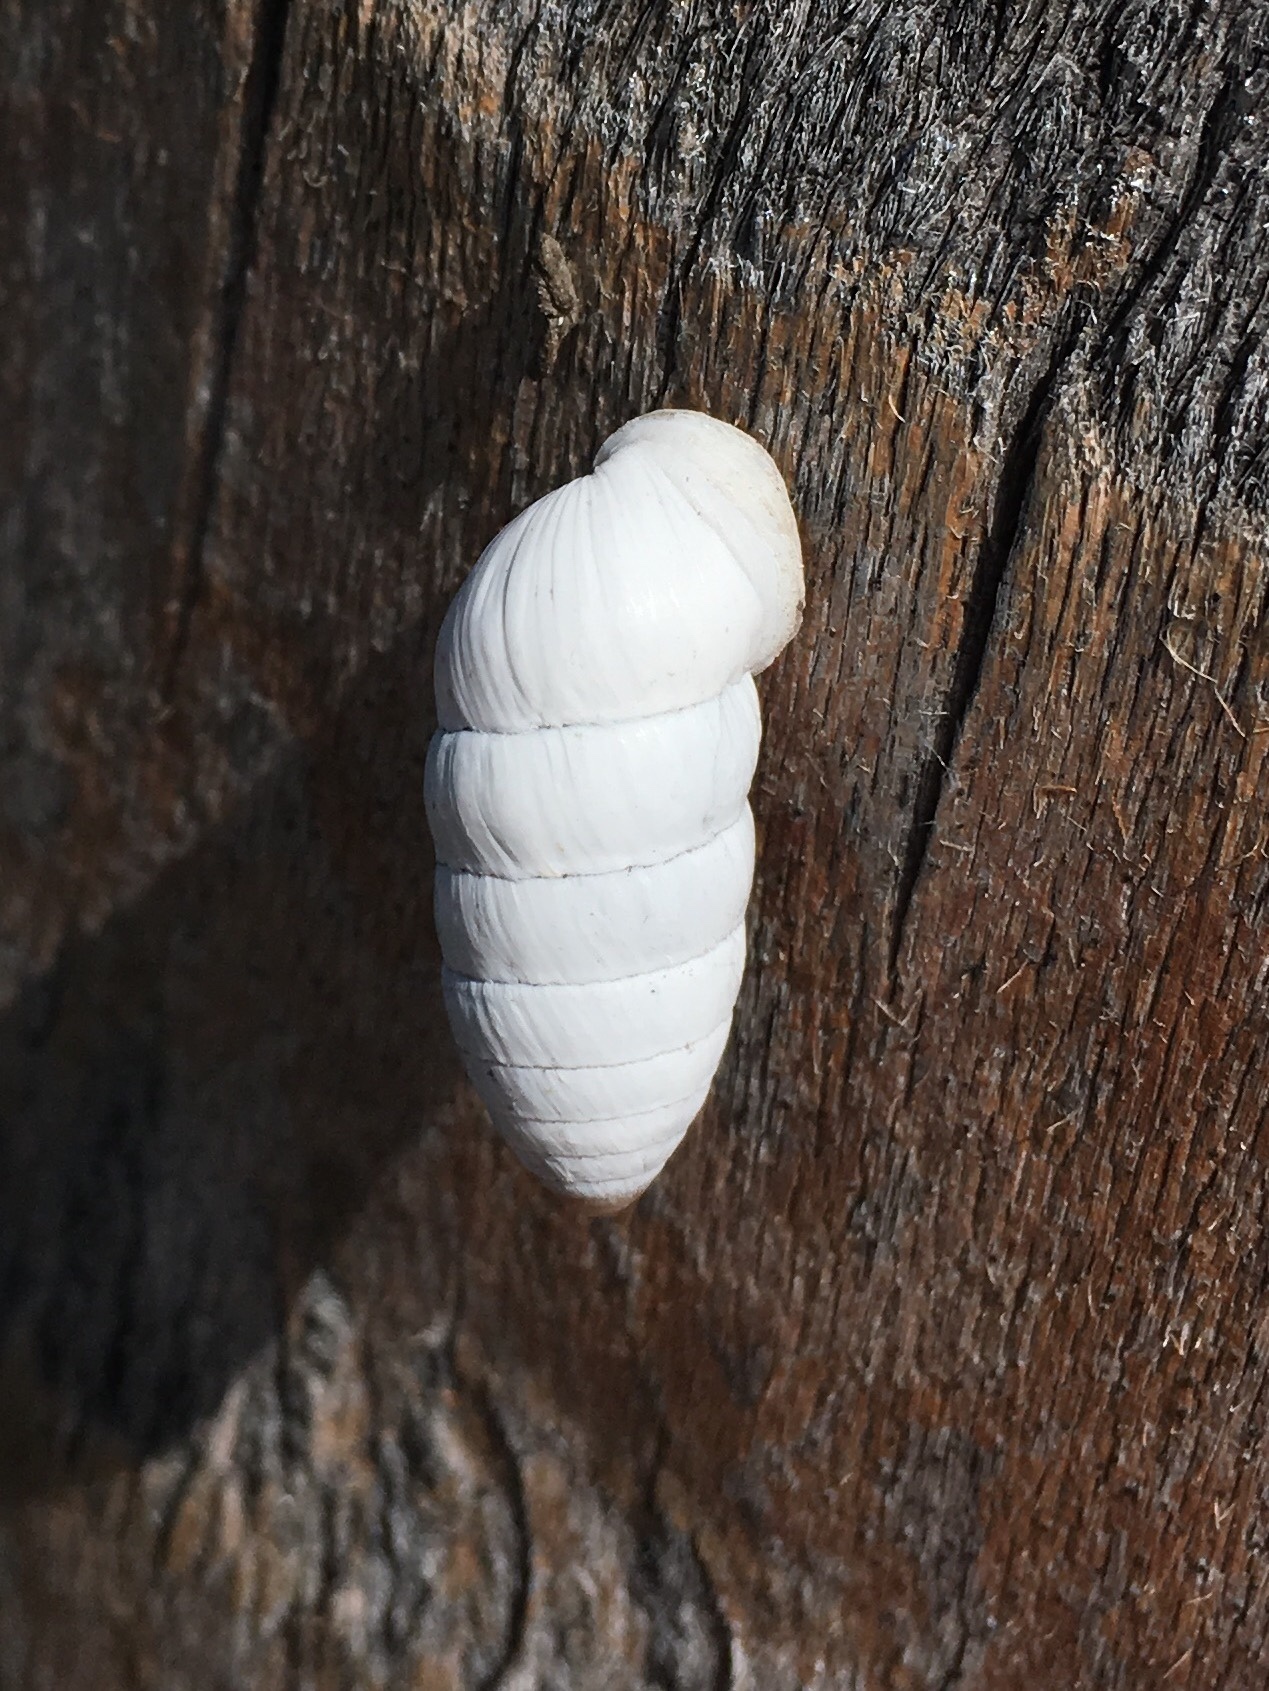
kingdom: Animalia
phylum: Mollusca
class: Gastropoda
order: Stylommatophora
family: Cerionidae
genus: Cerion
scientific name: Cerion incanum
